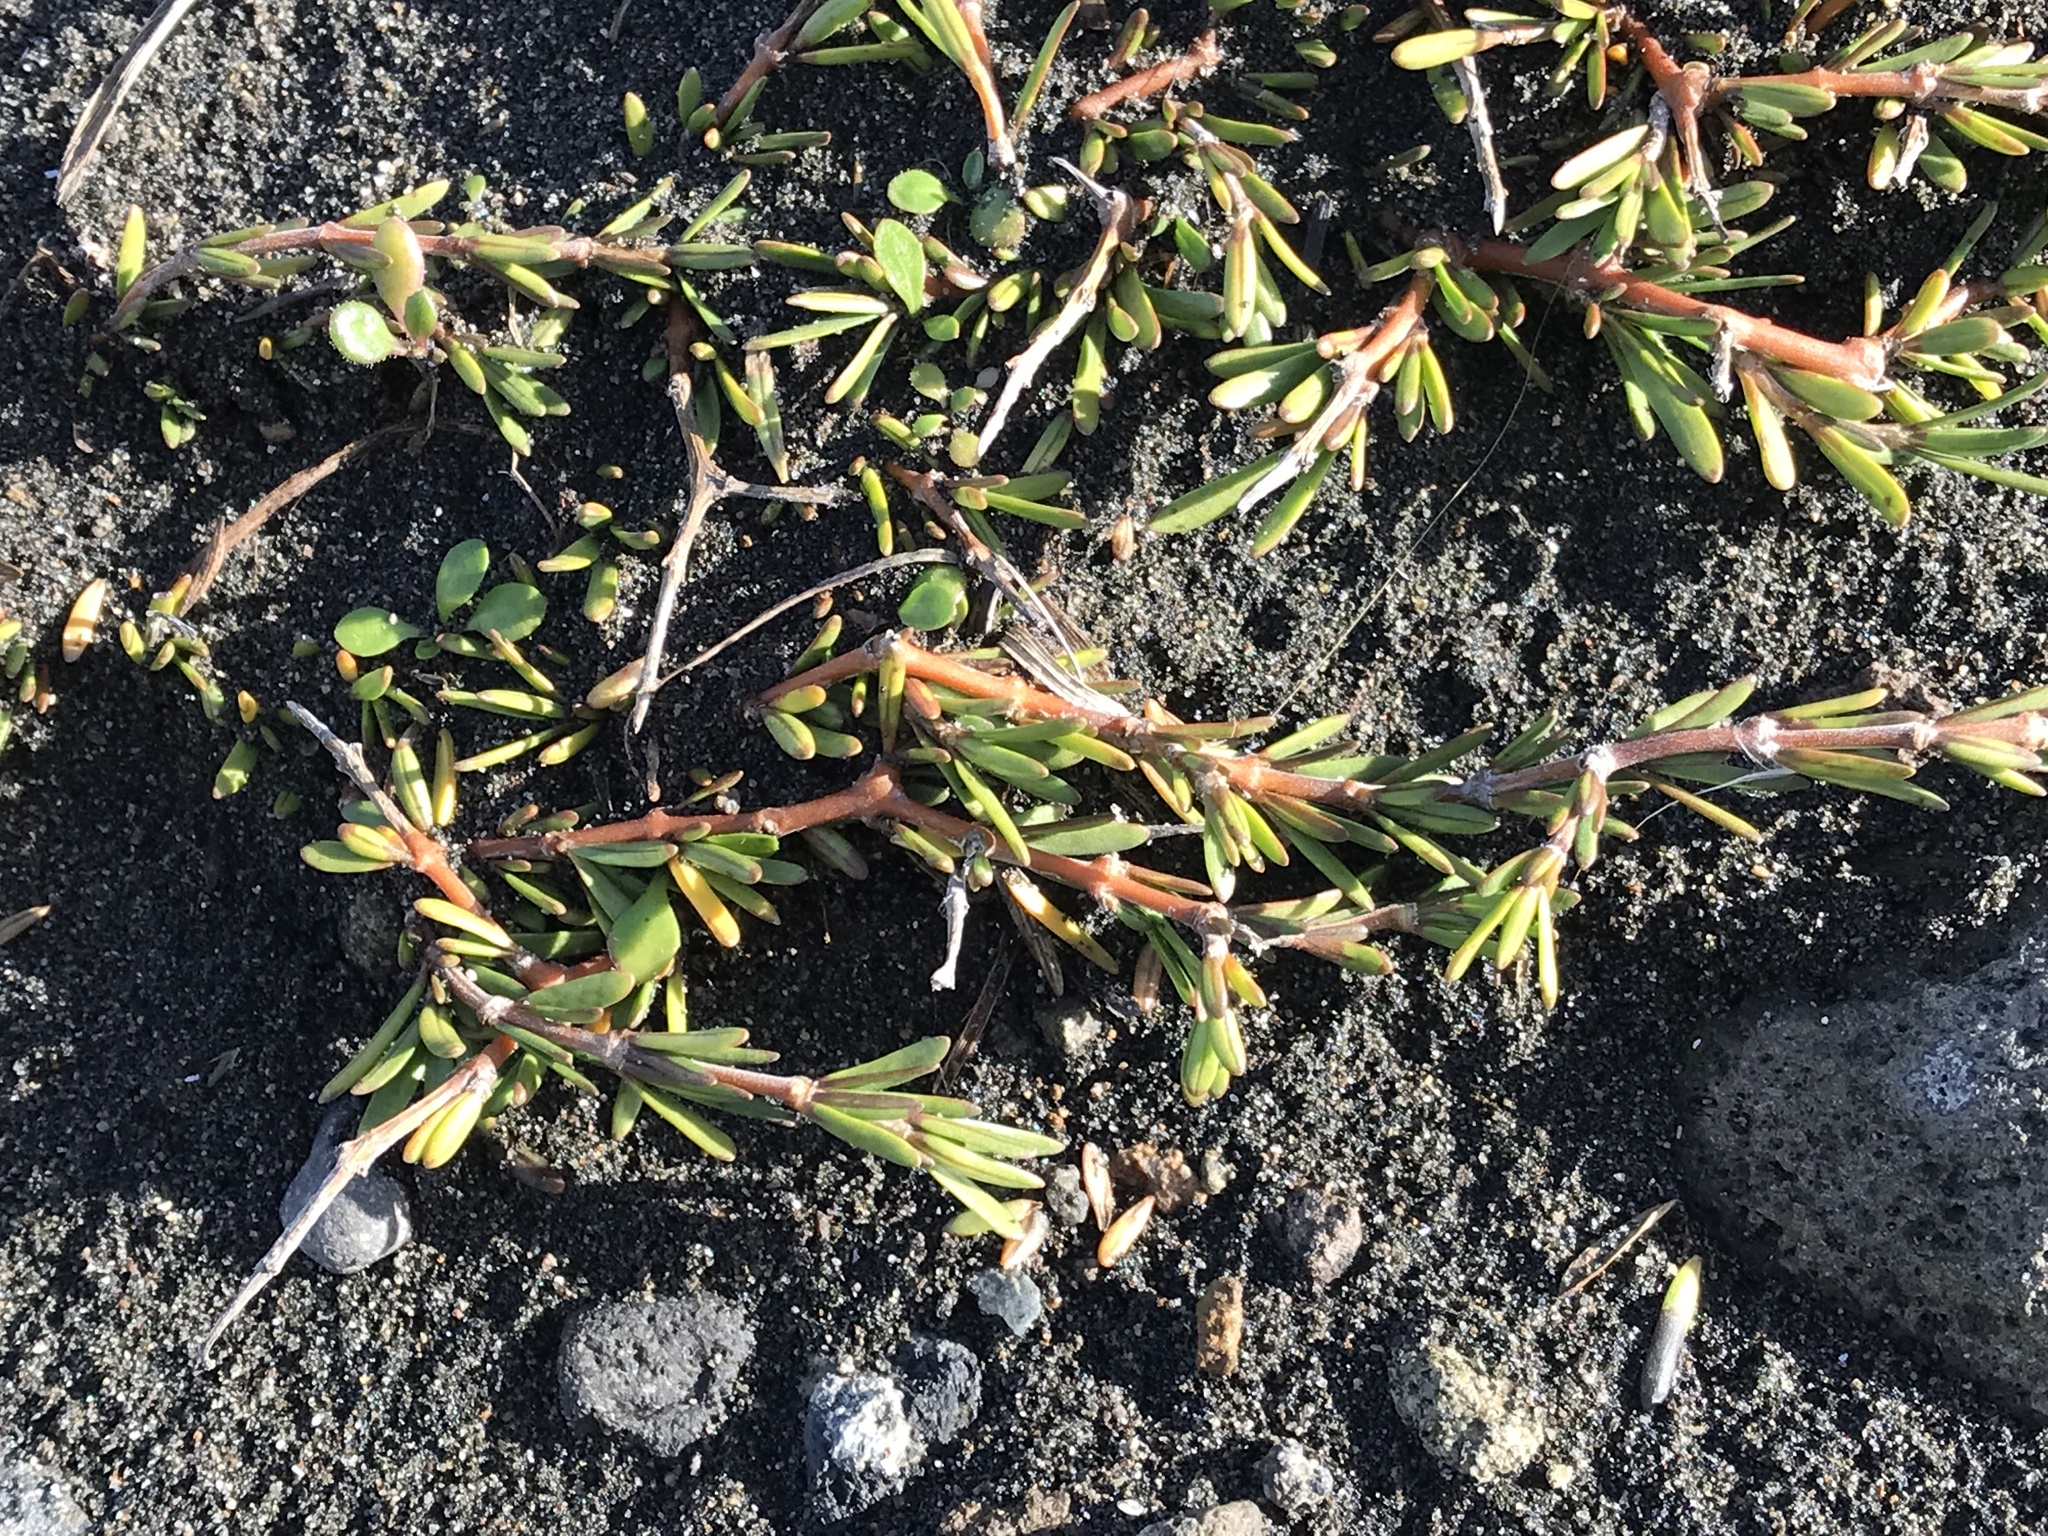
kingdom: Plantae
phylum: Tracheophyta
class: Magnoliopsida
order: Gentianales
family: Rubiaceae
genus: Coprosma
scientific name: Coprosma acerosa
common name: Sand coprosma
